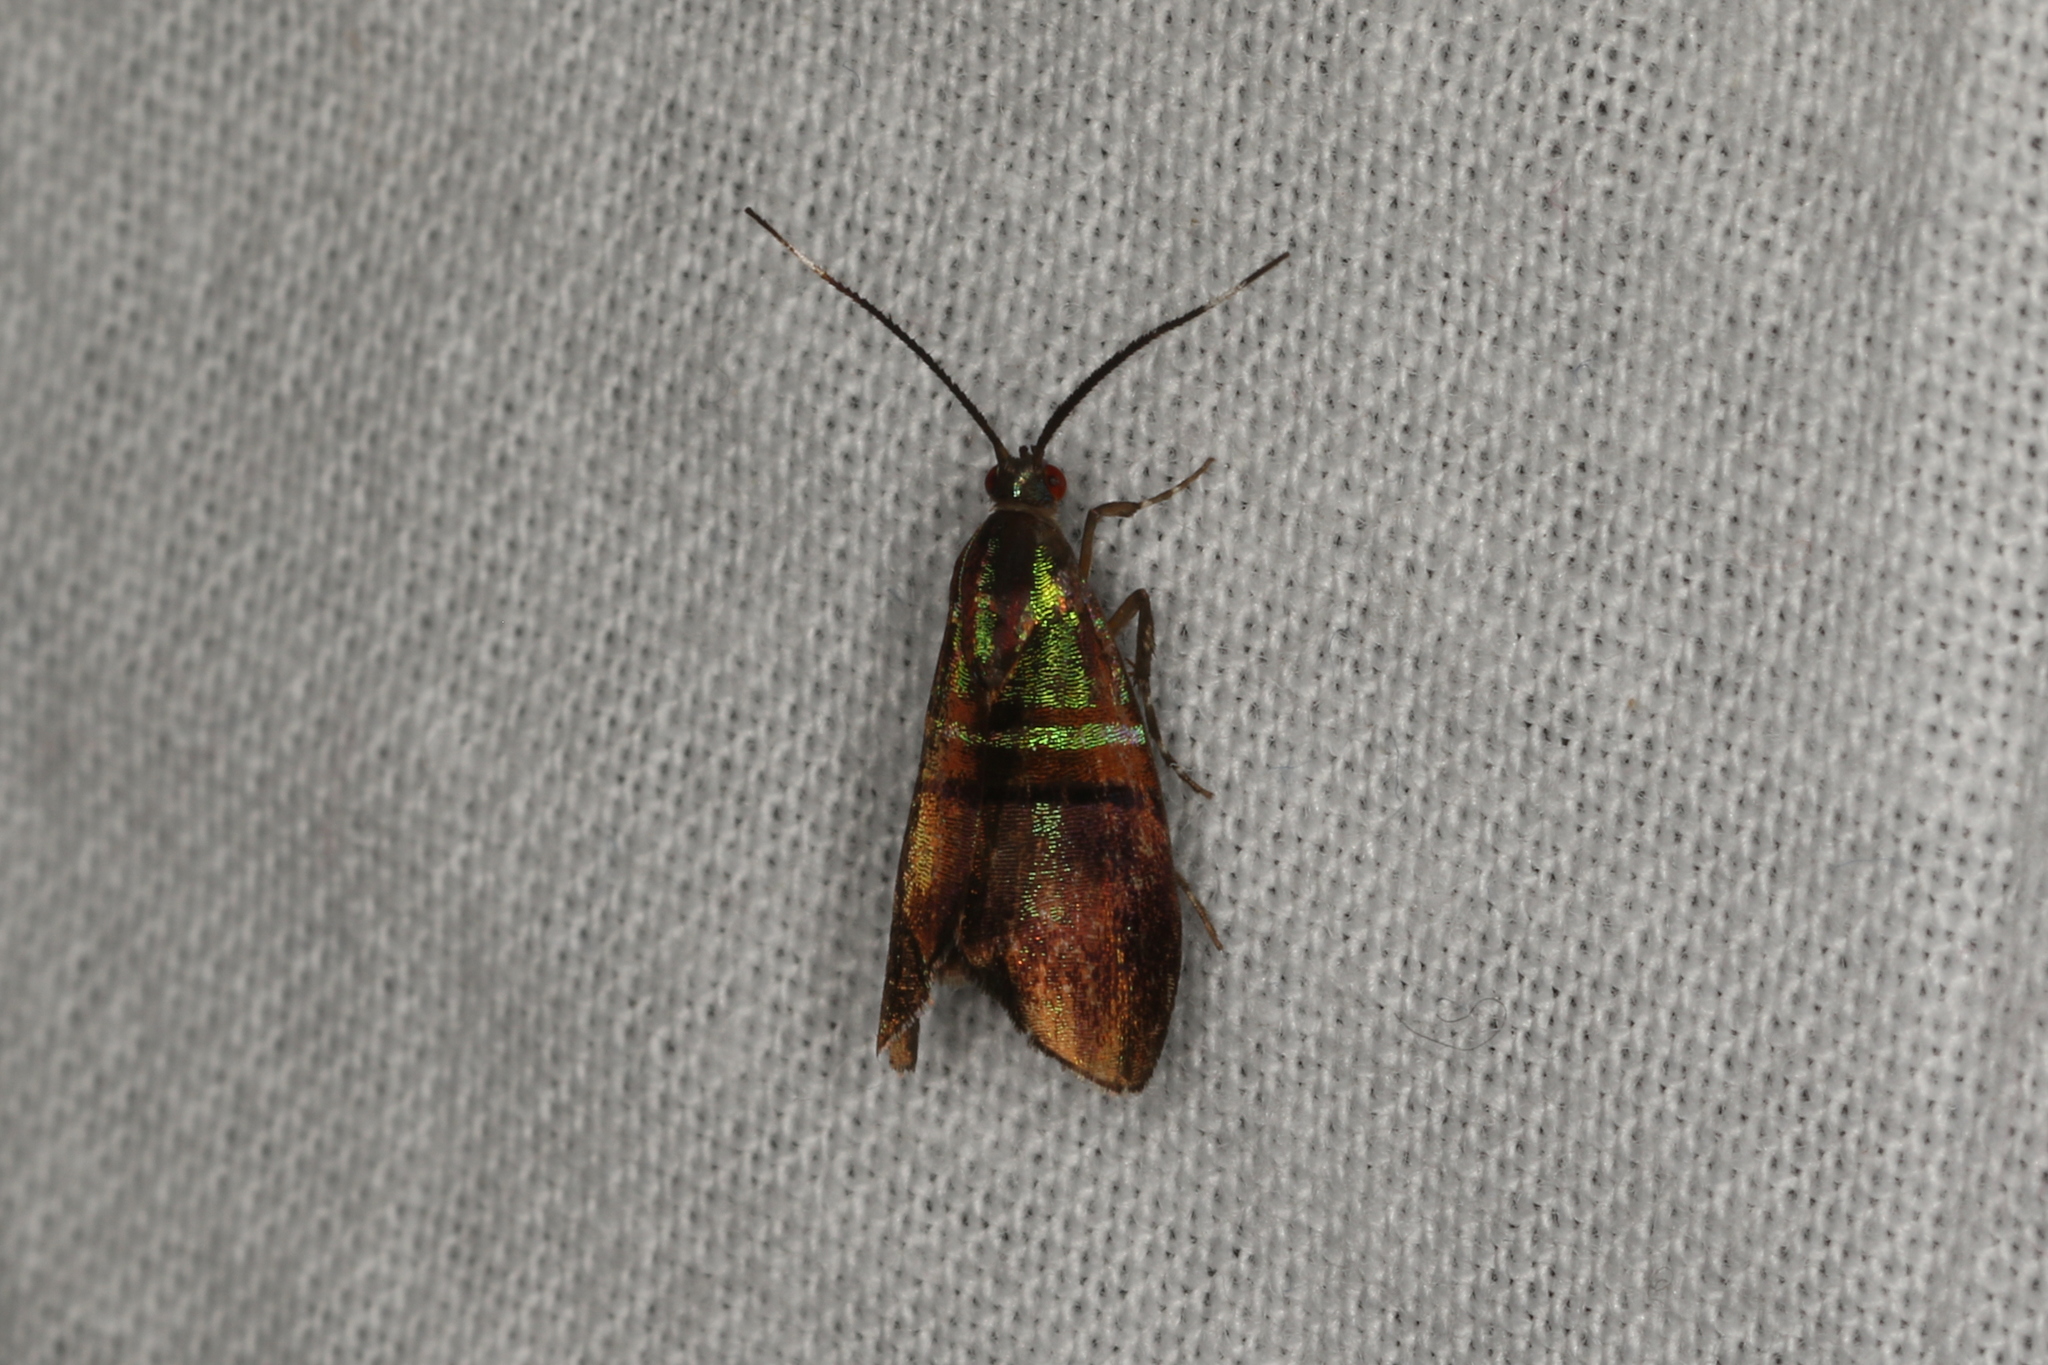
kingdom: Animalia
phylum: Arthropoda
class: Insecta
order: Lepidoptera
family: Choreutidae
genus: Saptha
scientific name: Saptha libanota
